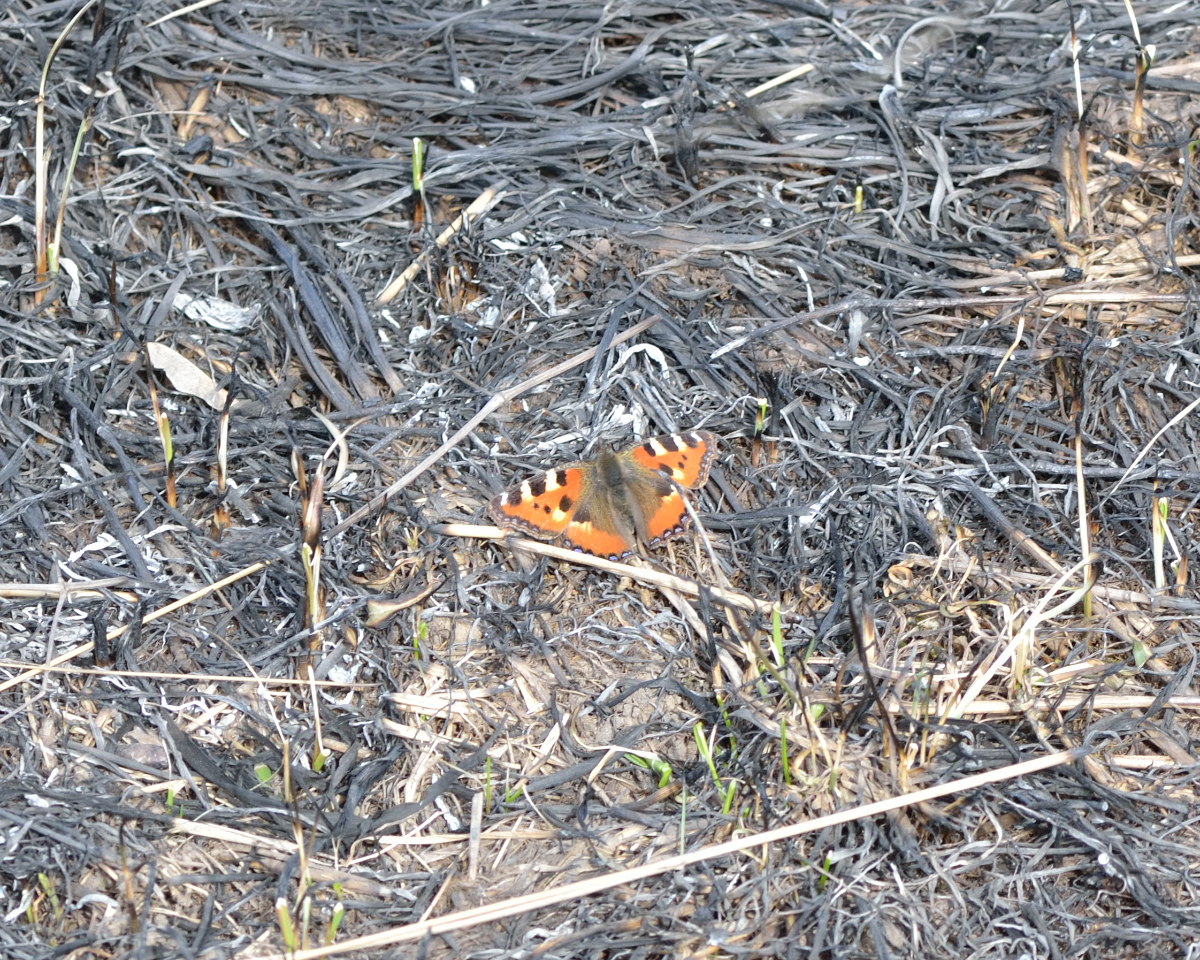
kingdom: Animalia
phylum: Arthropoda
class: Insecta
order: Lepidoptera
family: Nymphalidae
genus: Aglais
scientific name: Aglais urticae
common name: Small tortoiseshell
